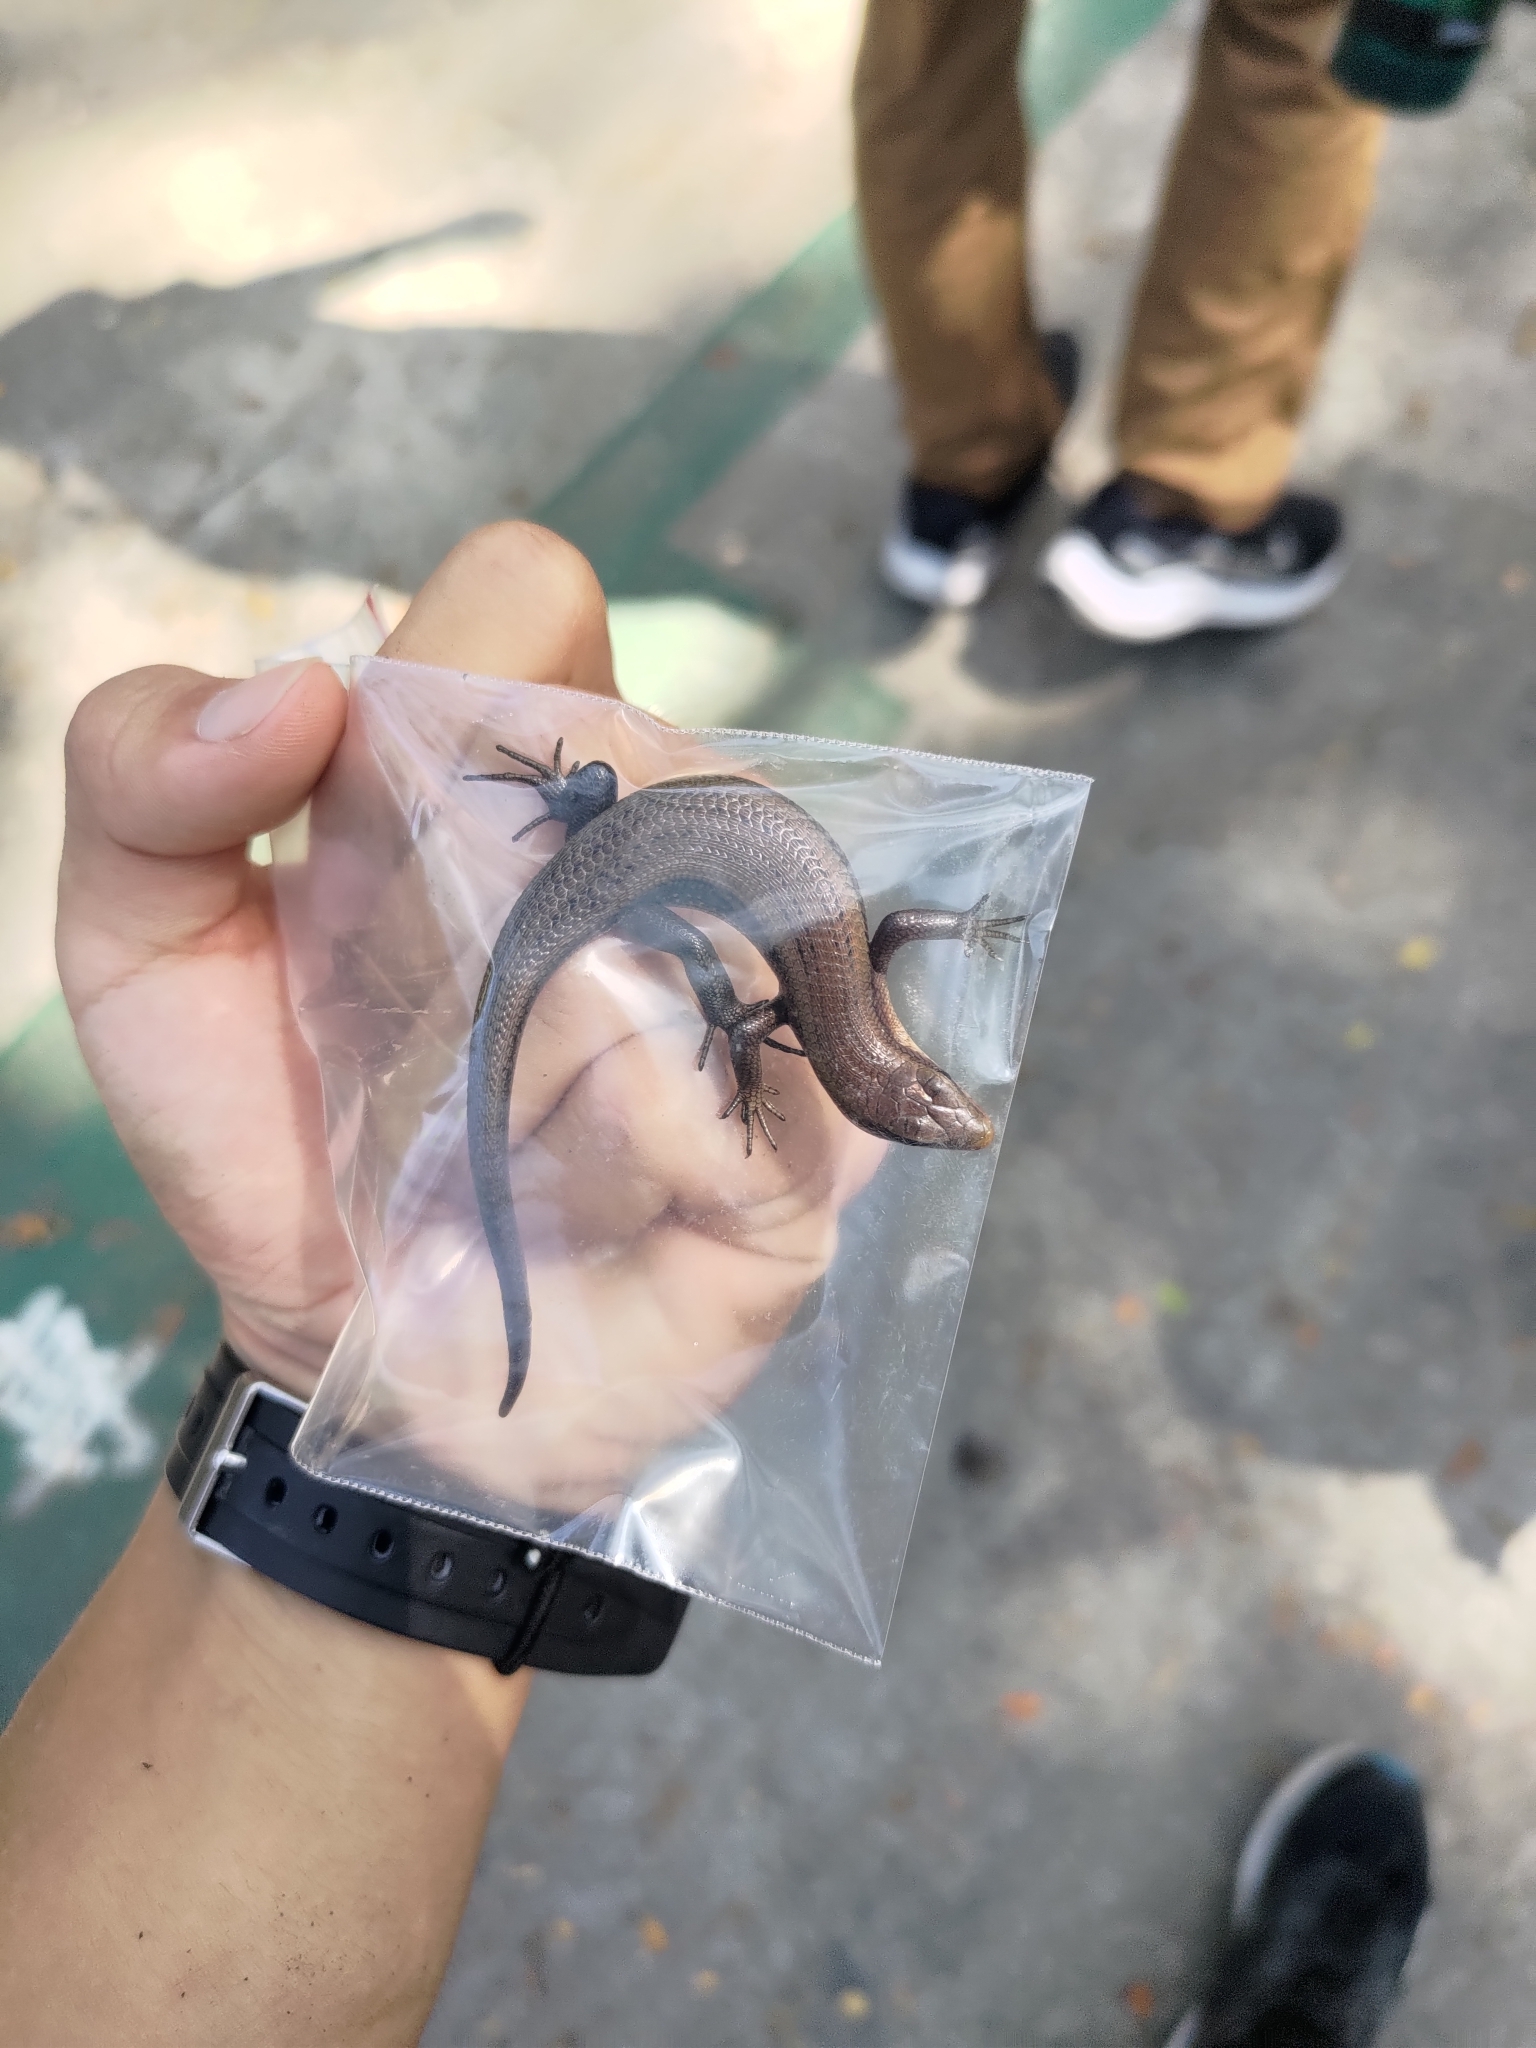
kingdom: Animalia
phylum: Chordata
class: Squamata
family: Scincidae
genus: Eutropis
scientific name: Eutropis multifasciata
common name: Common mabuya
